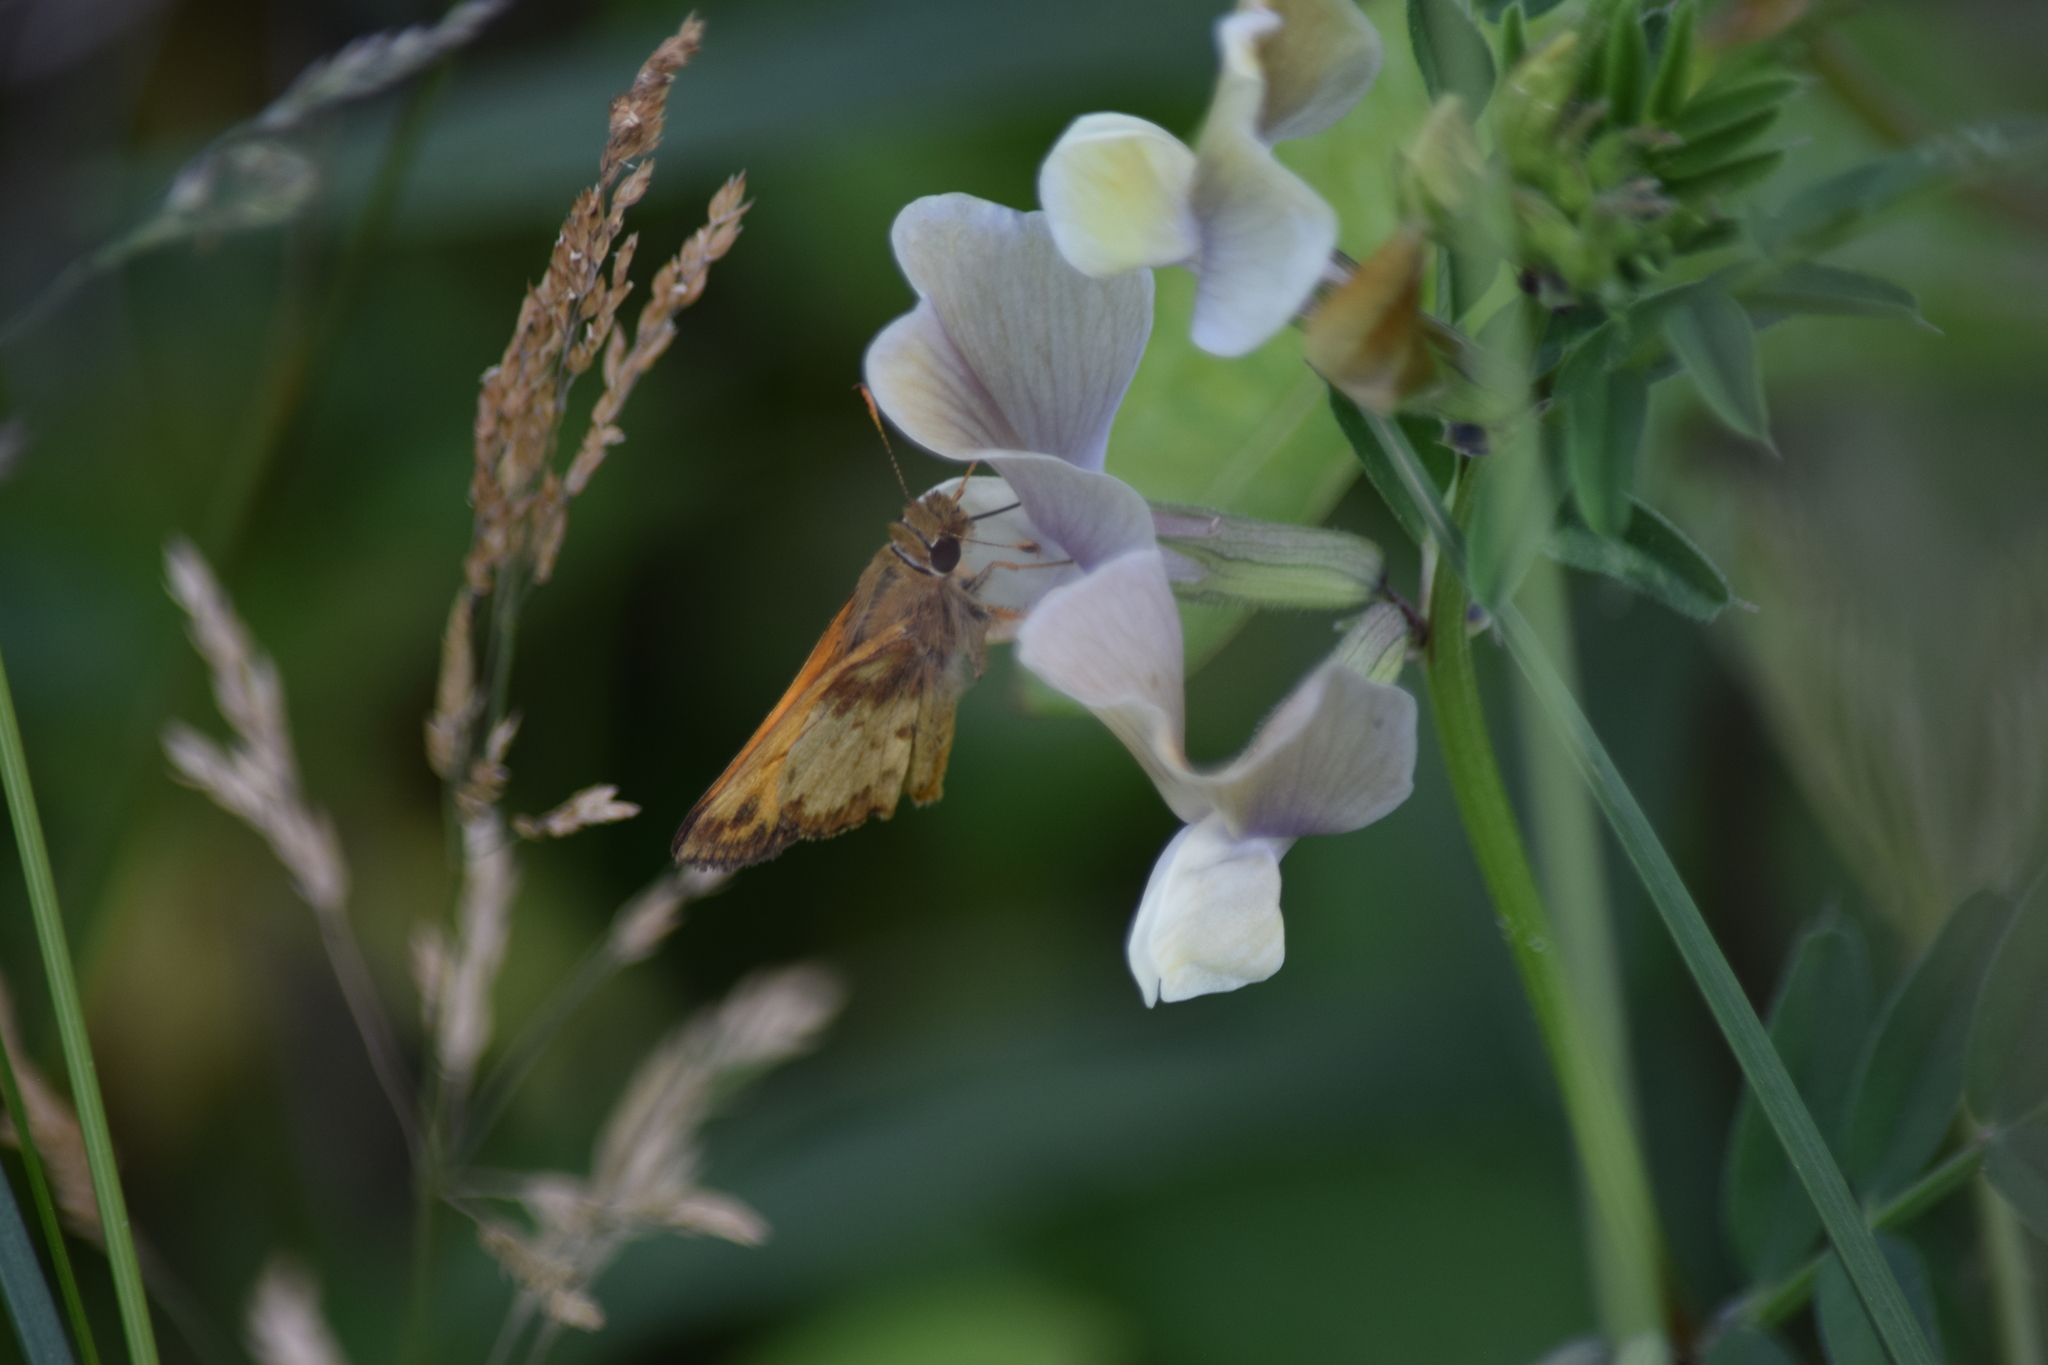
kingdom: Animalia
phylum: Arthropoda
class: Insecta
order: Lepidoptera
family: Hesperiidae
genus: Lon
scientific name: Lon zabulon
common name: Zabulon skipper
